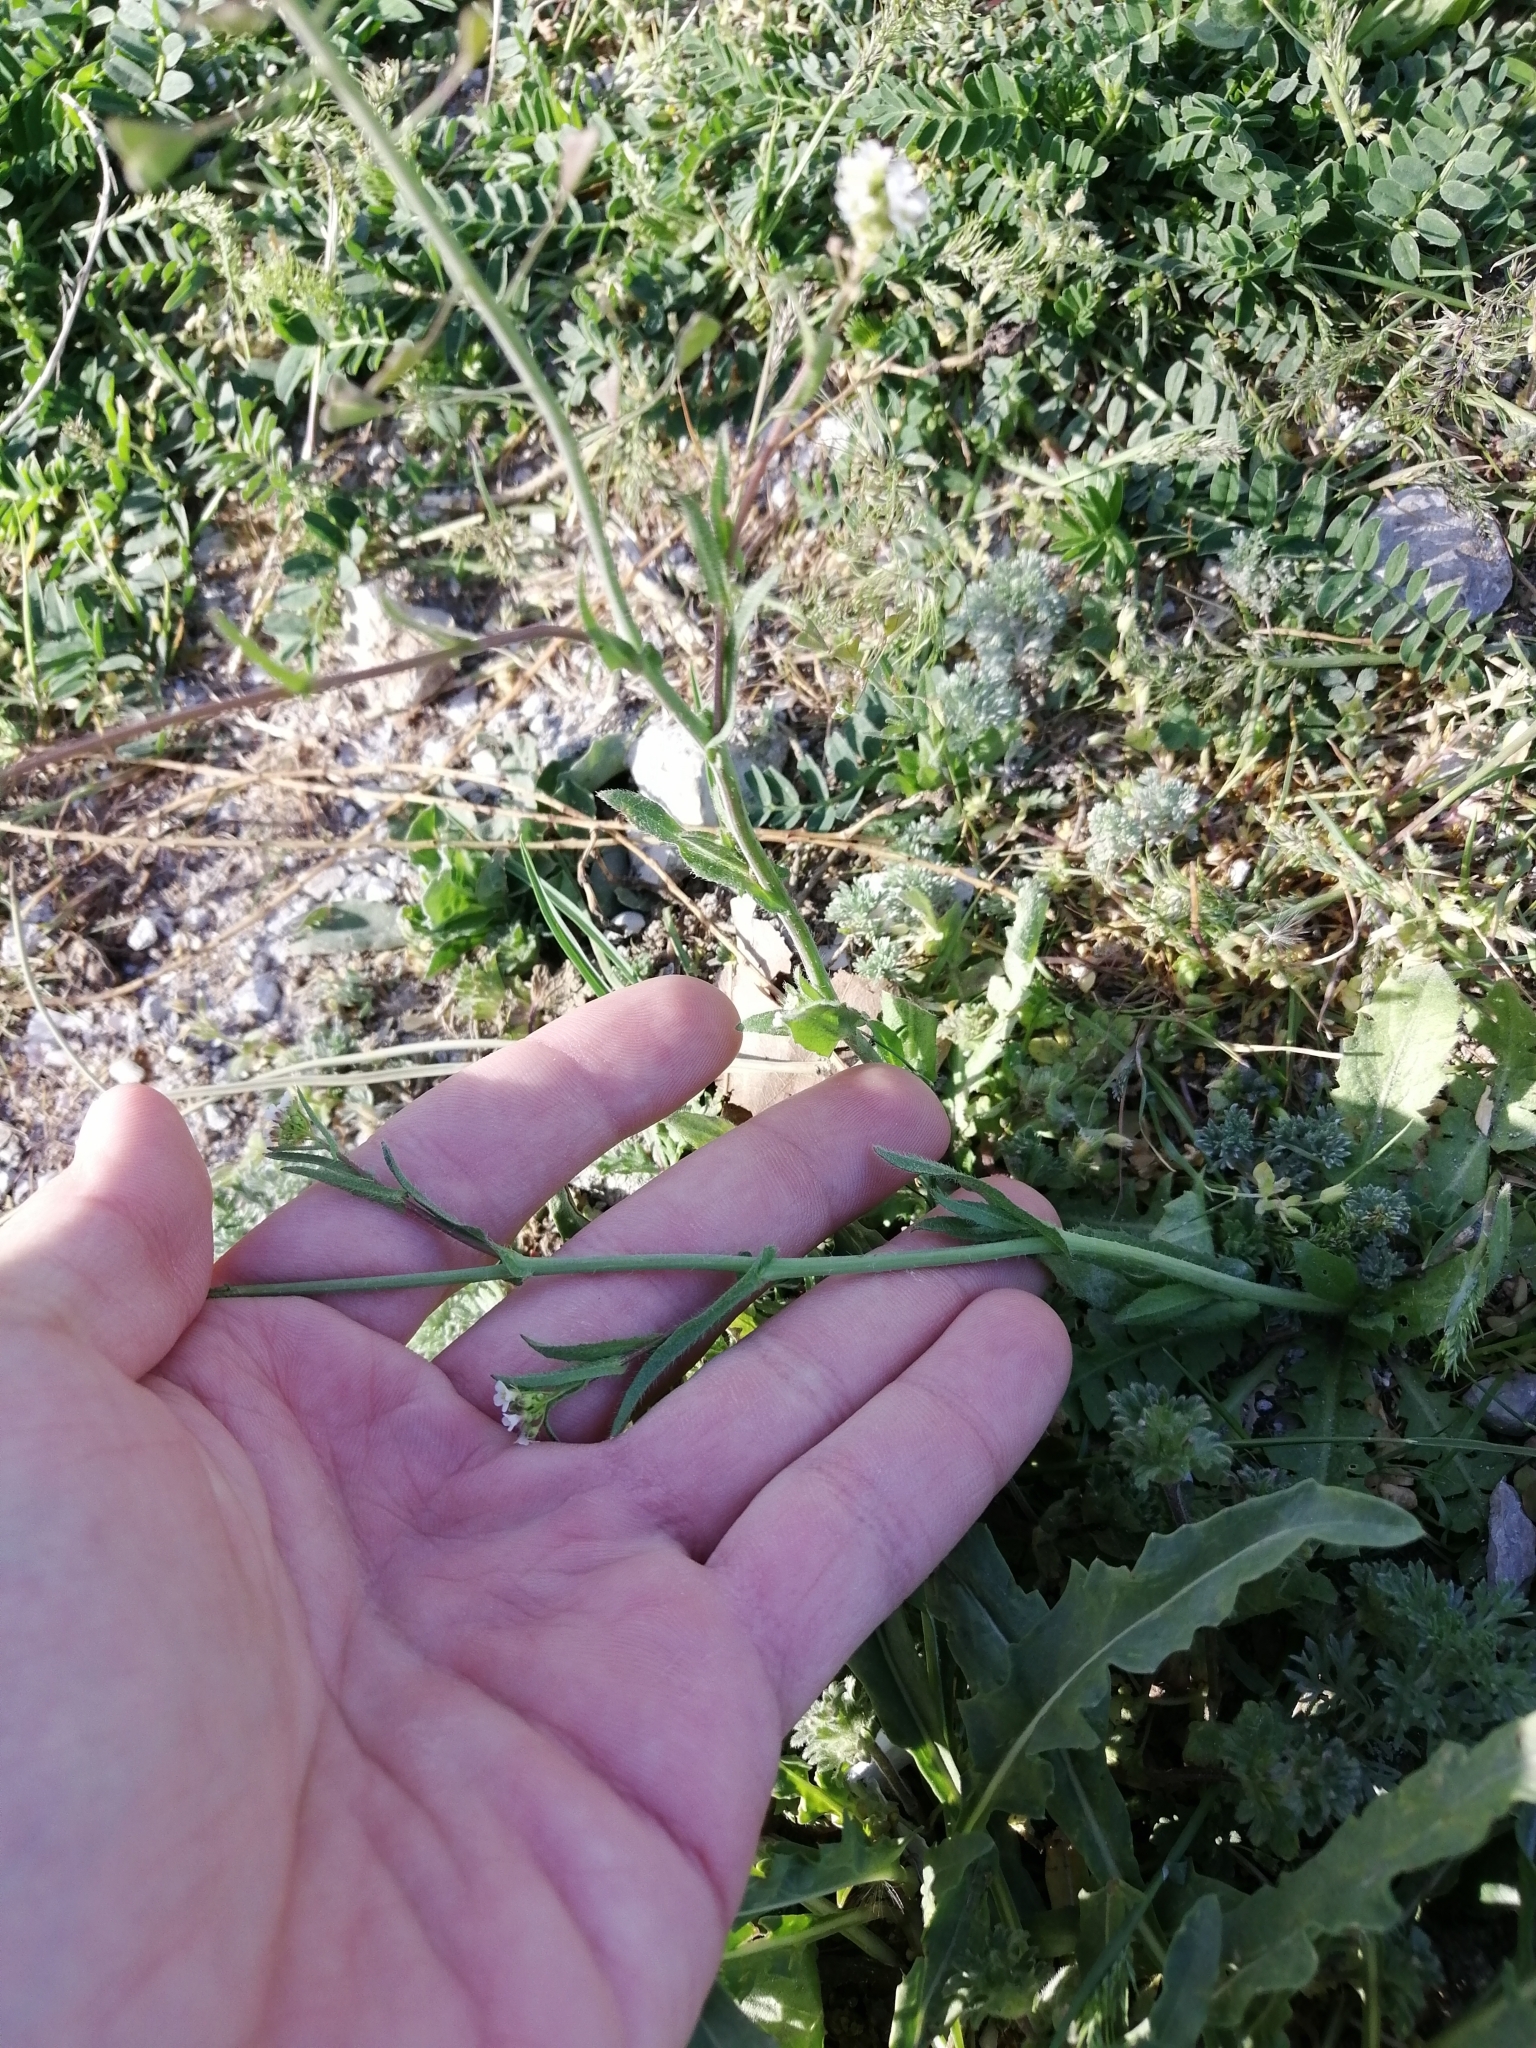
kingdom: Plantae
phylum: Tracheophyta
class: Magnoliopsida
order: Brassicales
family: Brassicaceae
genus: Capsella
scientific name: Capsella bursa-pastoris
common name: Shepherd's purse
